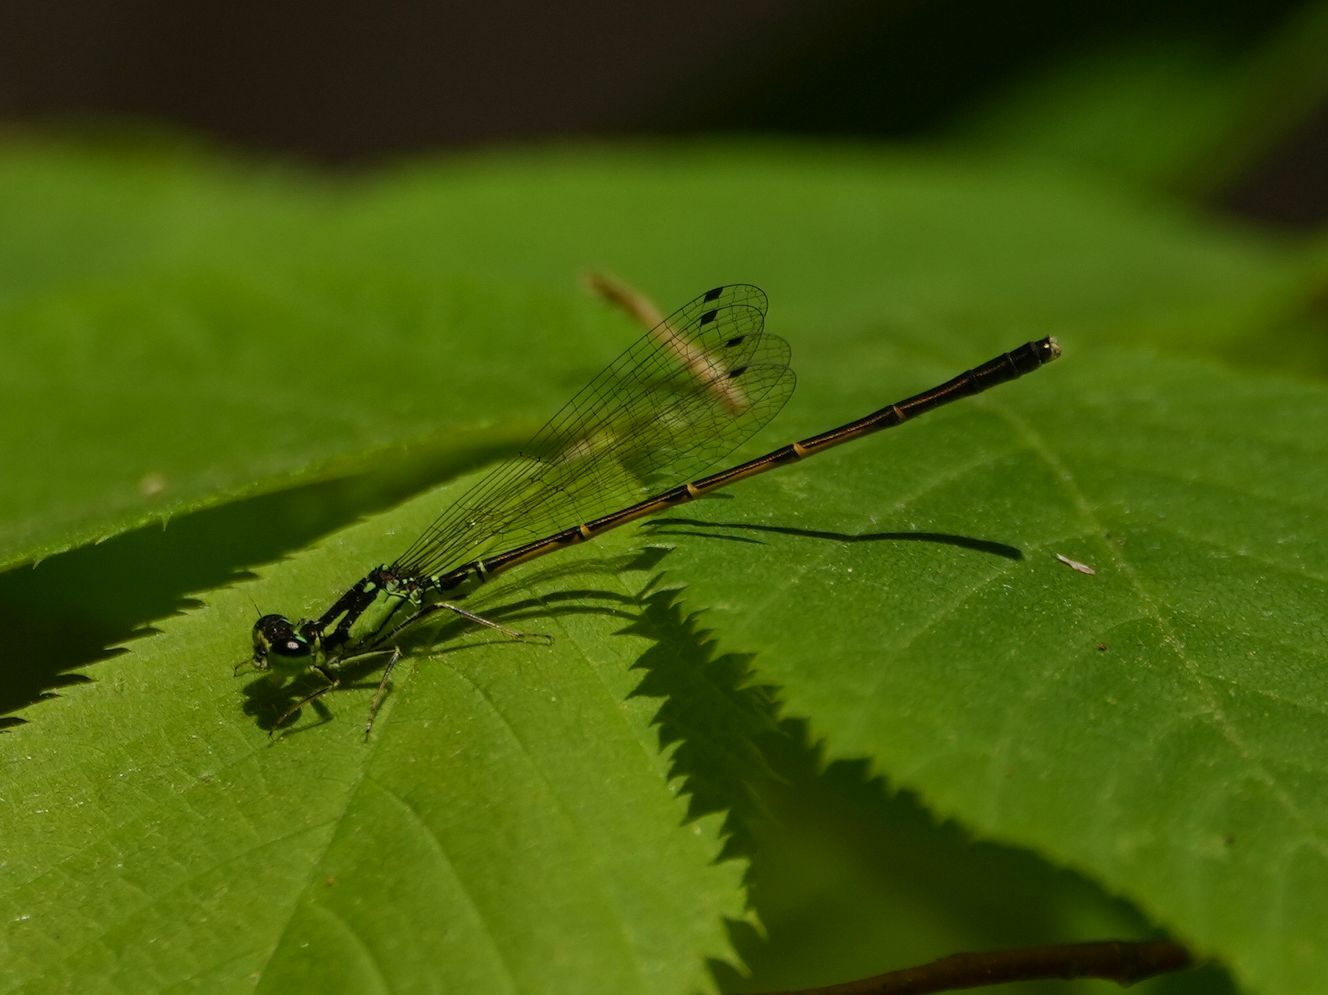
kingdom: Animalia
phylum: Arthropoda
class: Insecta
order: Odonata
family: Coenagrionidae
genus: Ischnura
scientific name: Ischnura posita
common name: Fragile forktail
